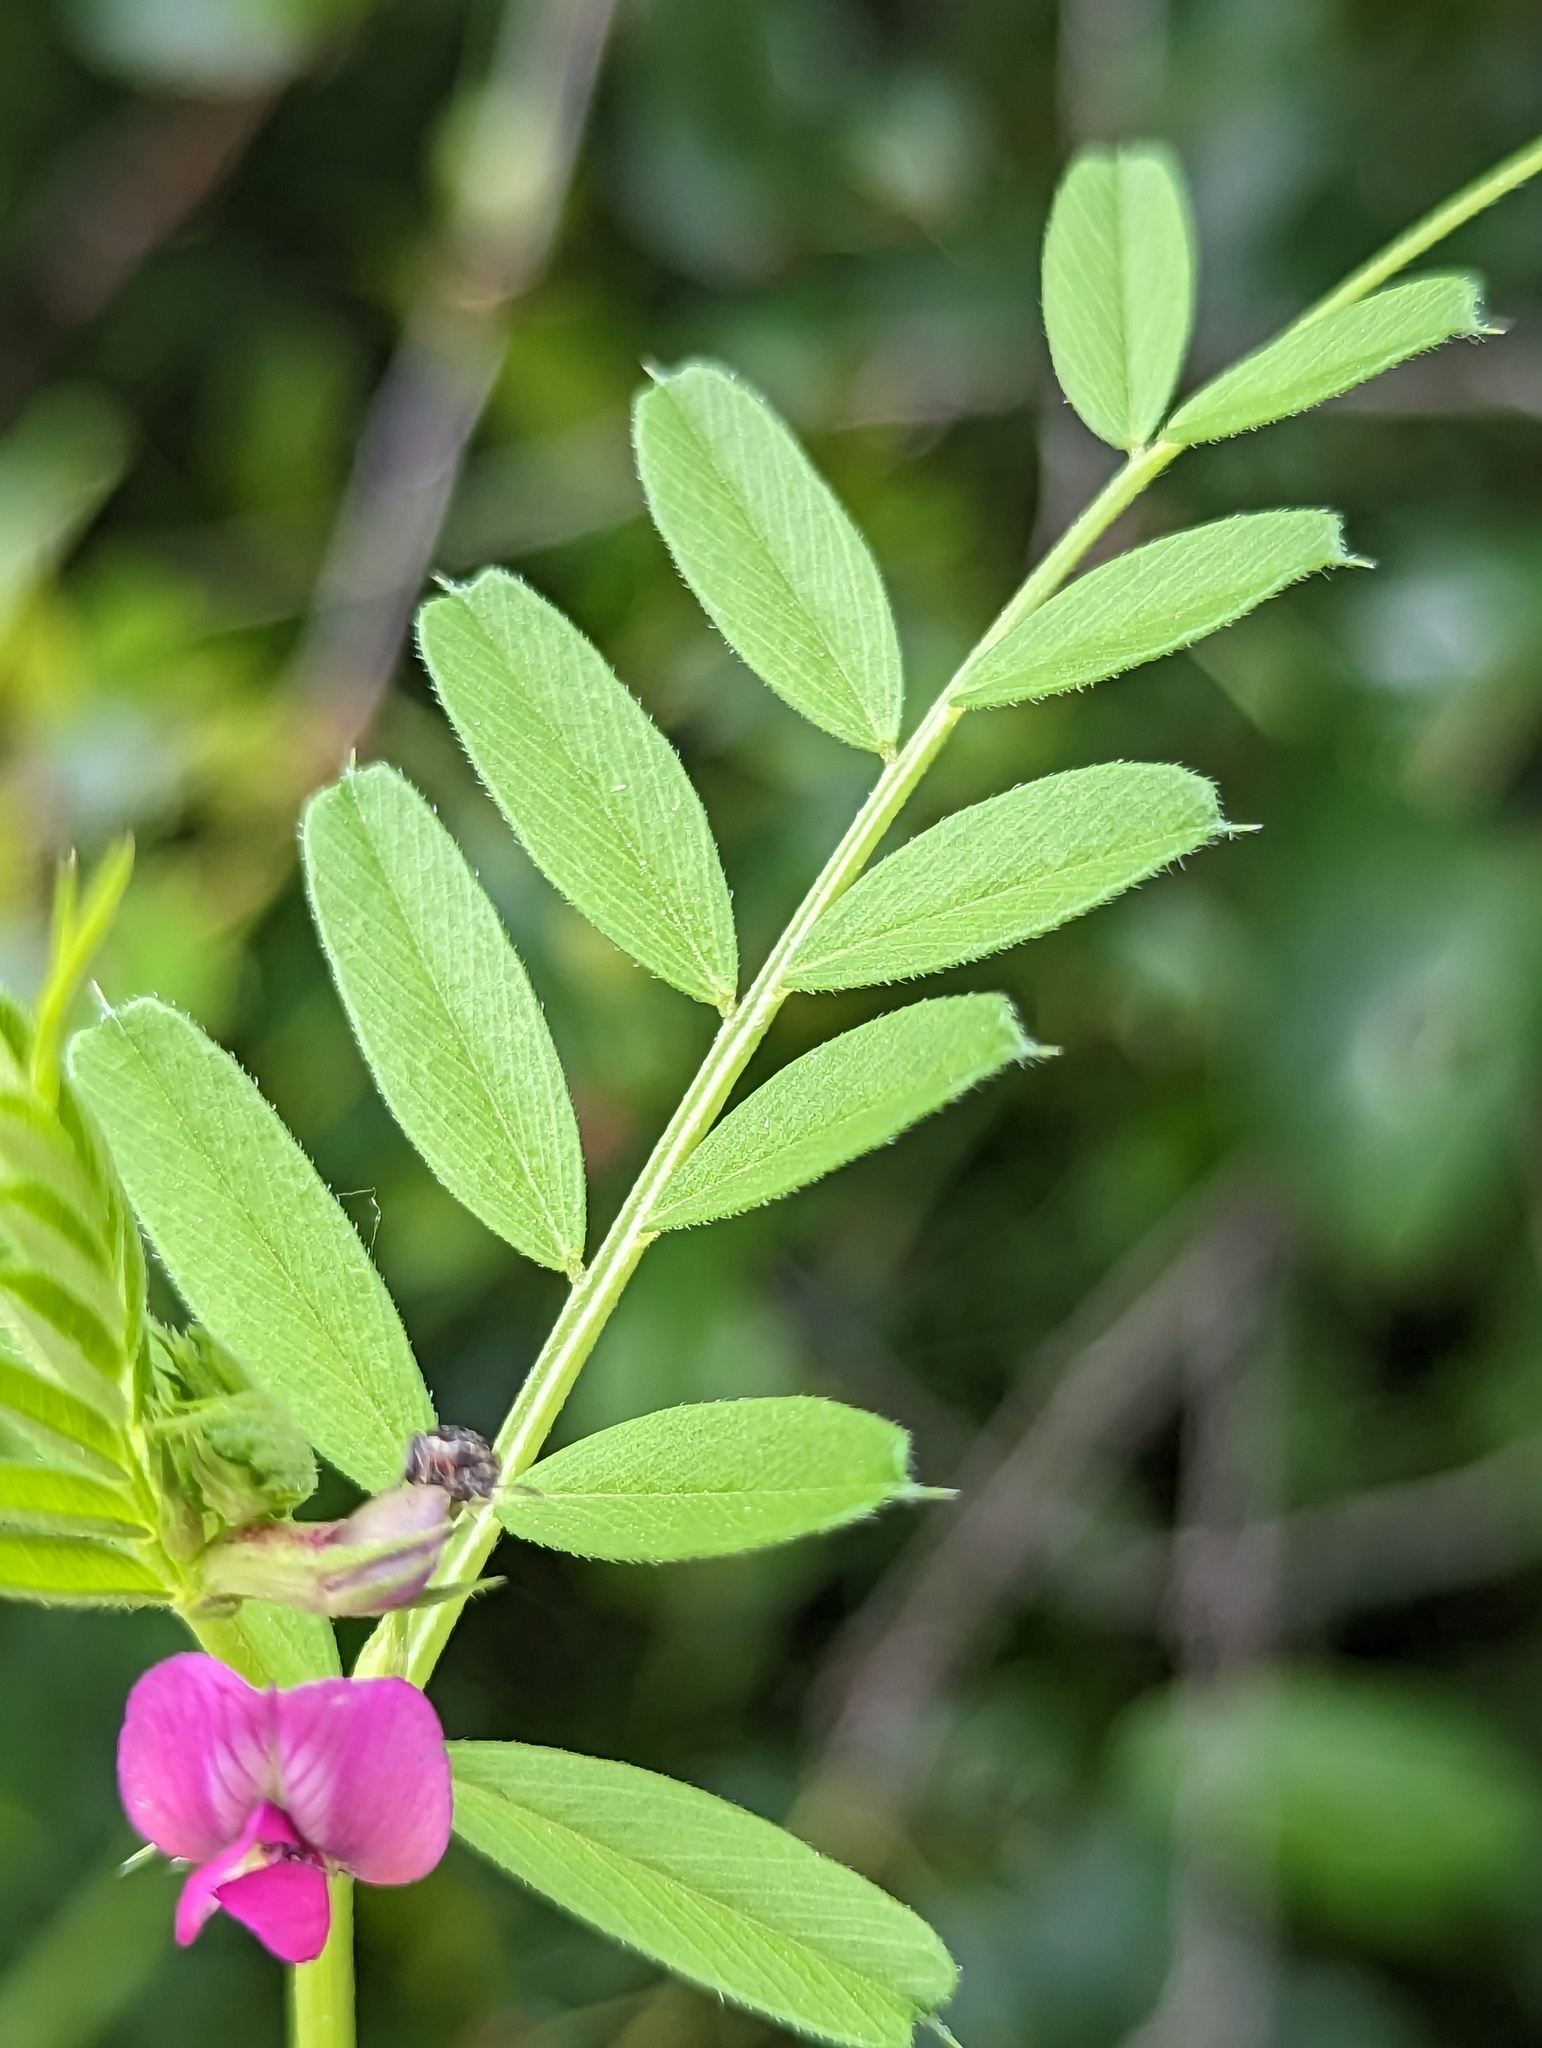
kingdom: Plantae
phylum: Tracheophyta
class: Magnoliopsida
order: Fabales
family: Fabaceae
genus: Vicia
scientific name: Vicia sativa
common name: Garden vetch
